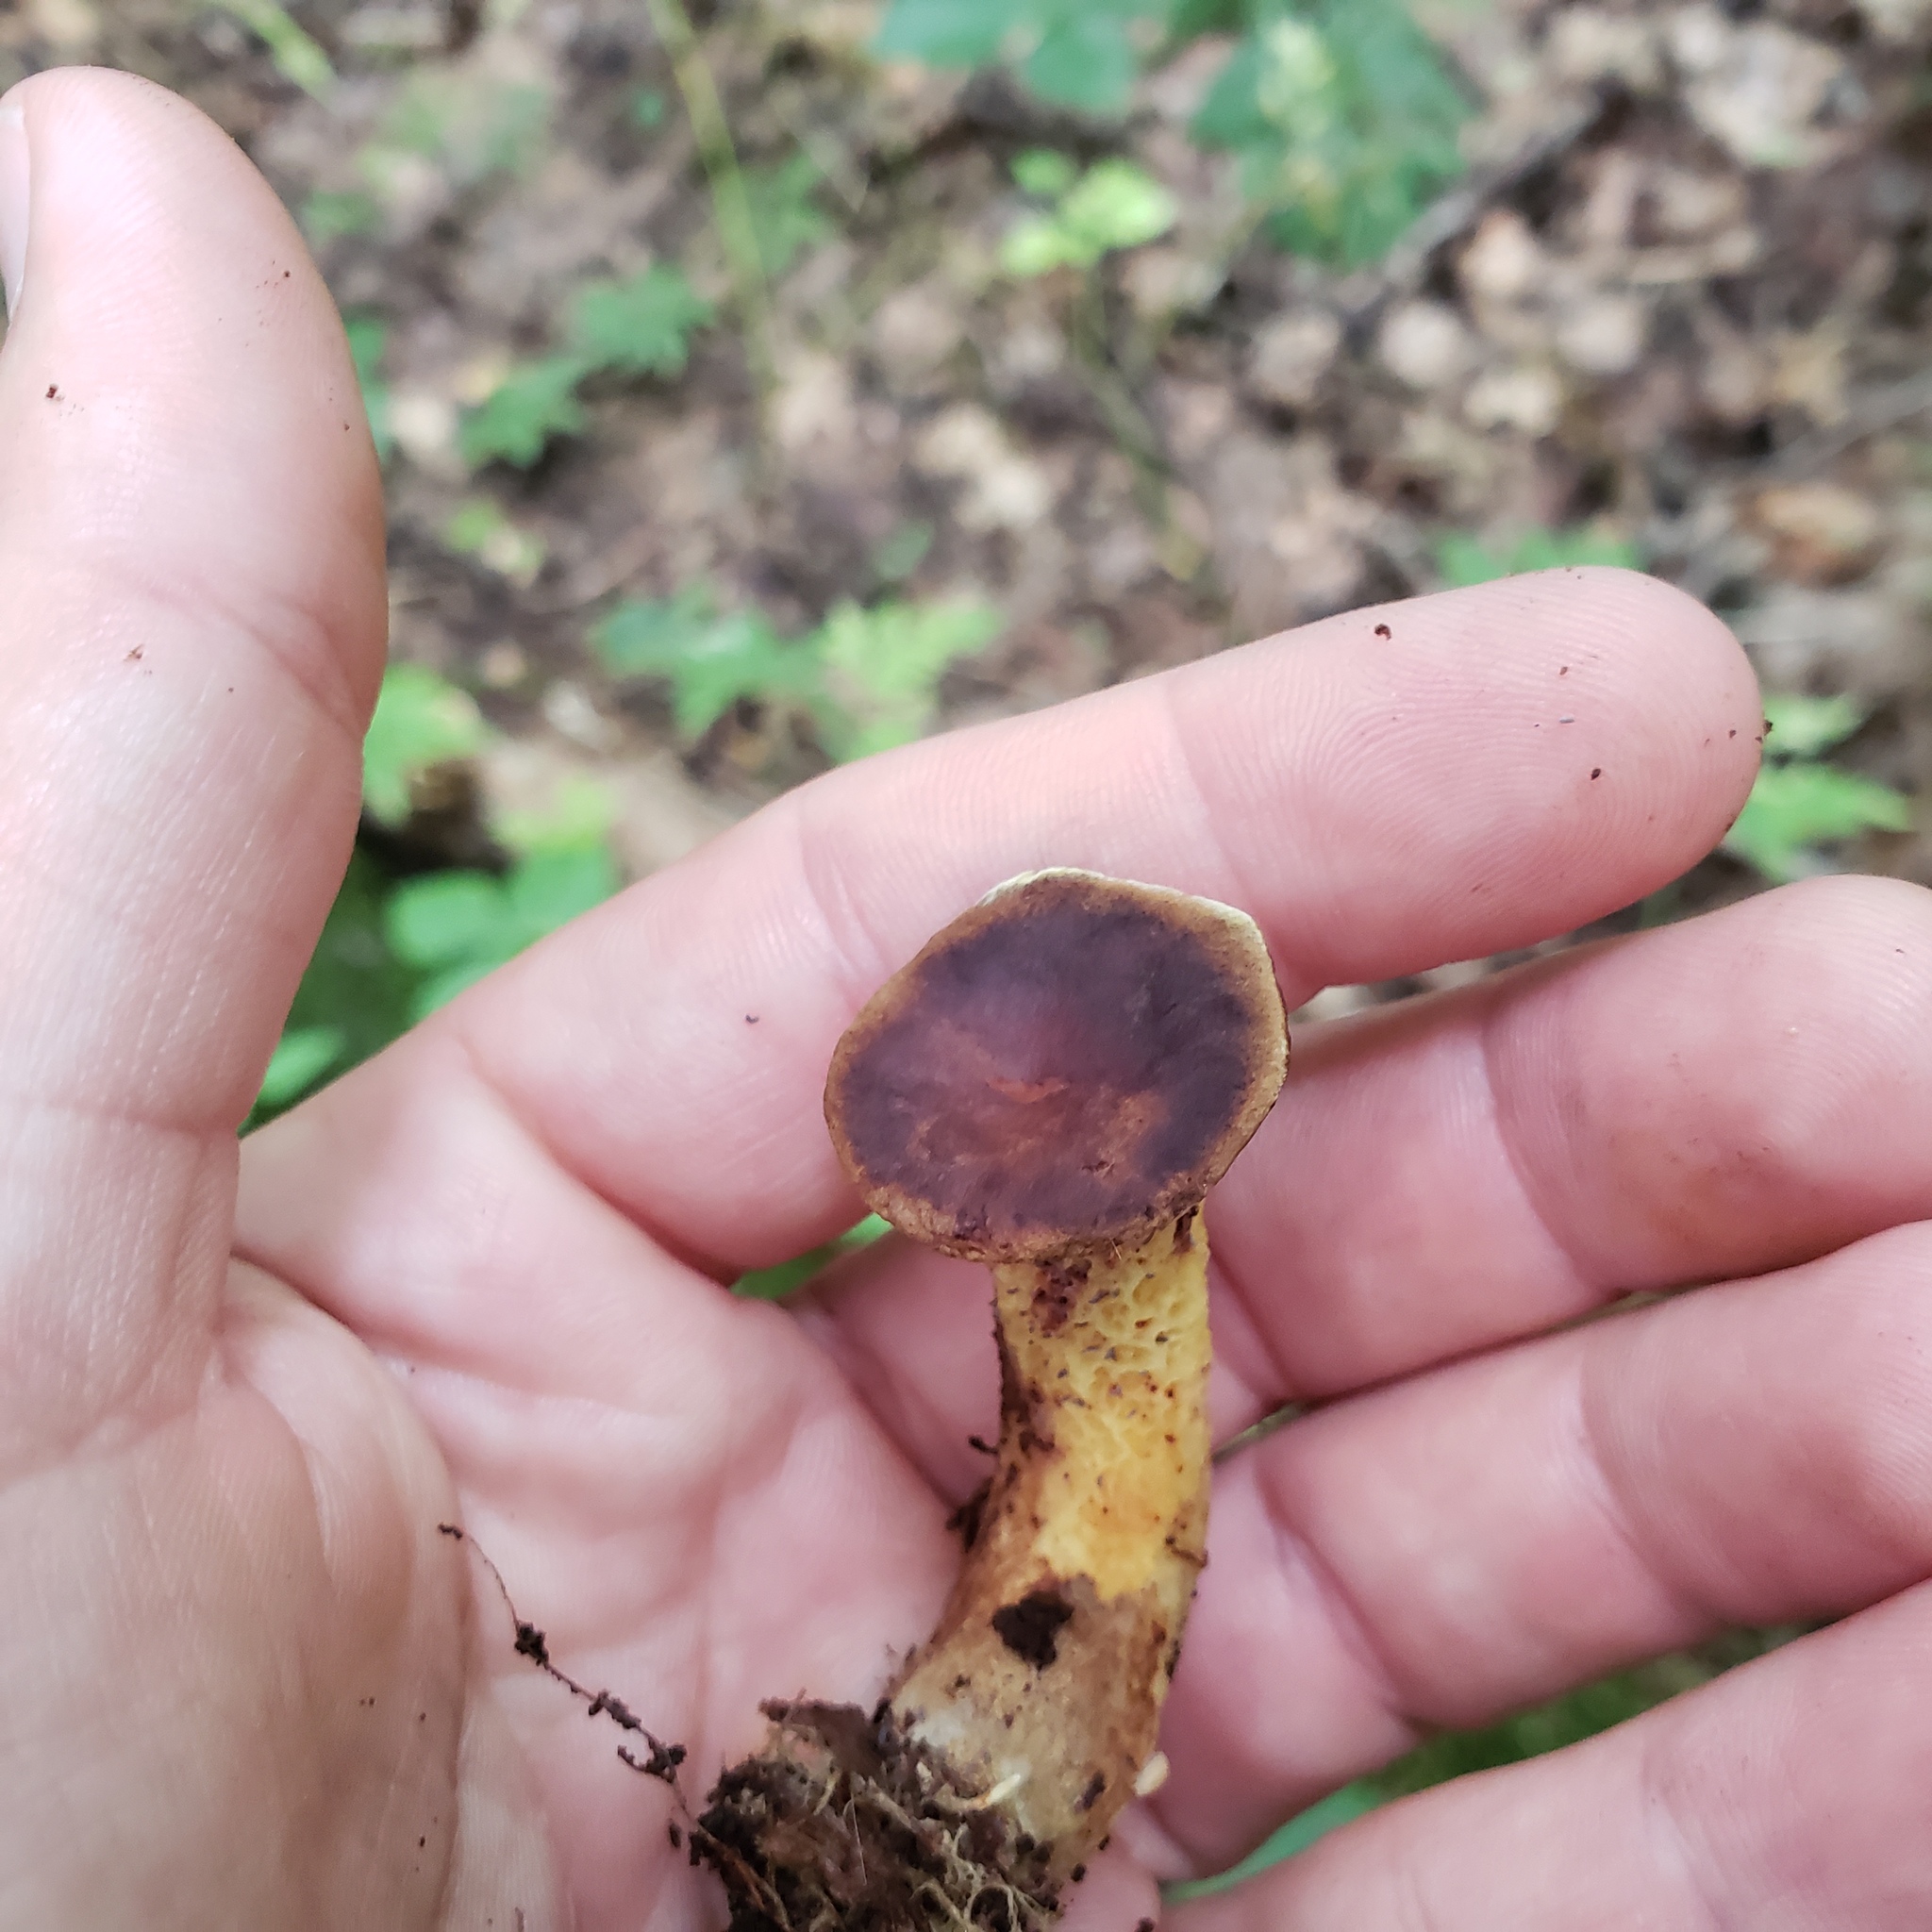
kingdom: Fungi
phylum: Basidiomycota
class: Agaricomycetes
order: Boletales
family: Boletinellaceae
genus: Boletinellus
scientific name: Boletinellus merulioides
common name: Ash tree bolete
